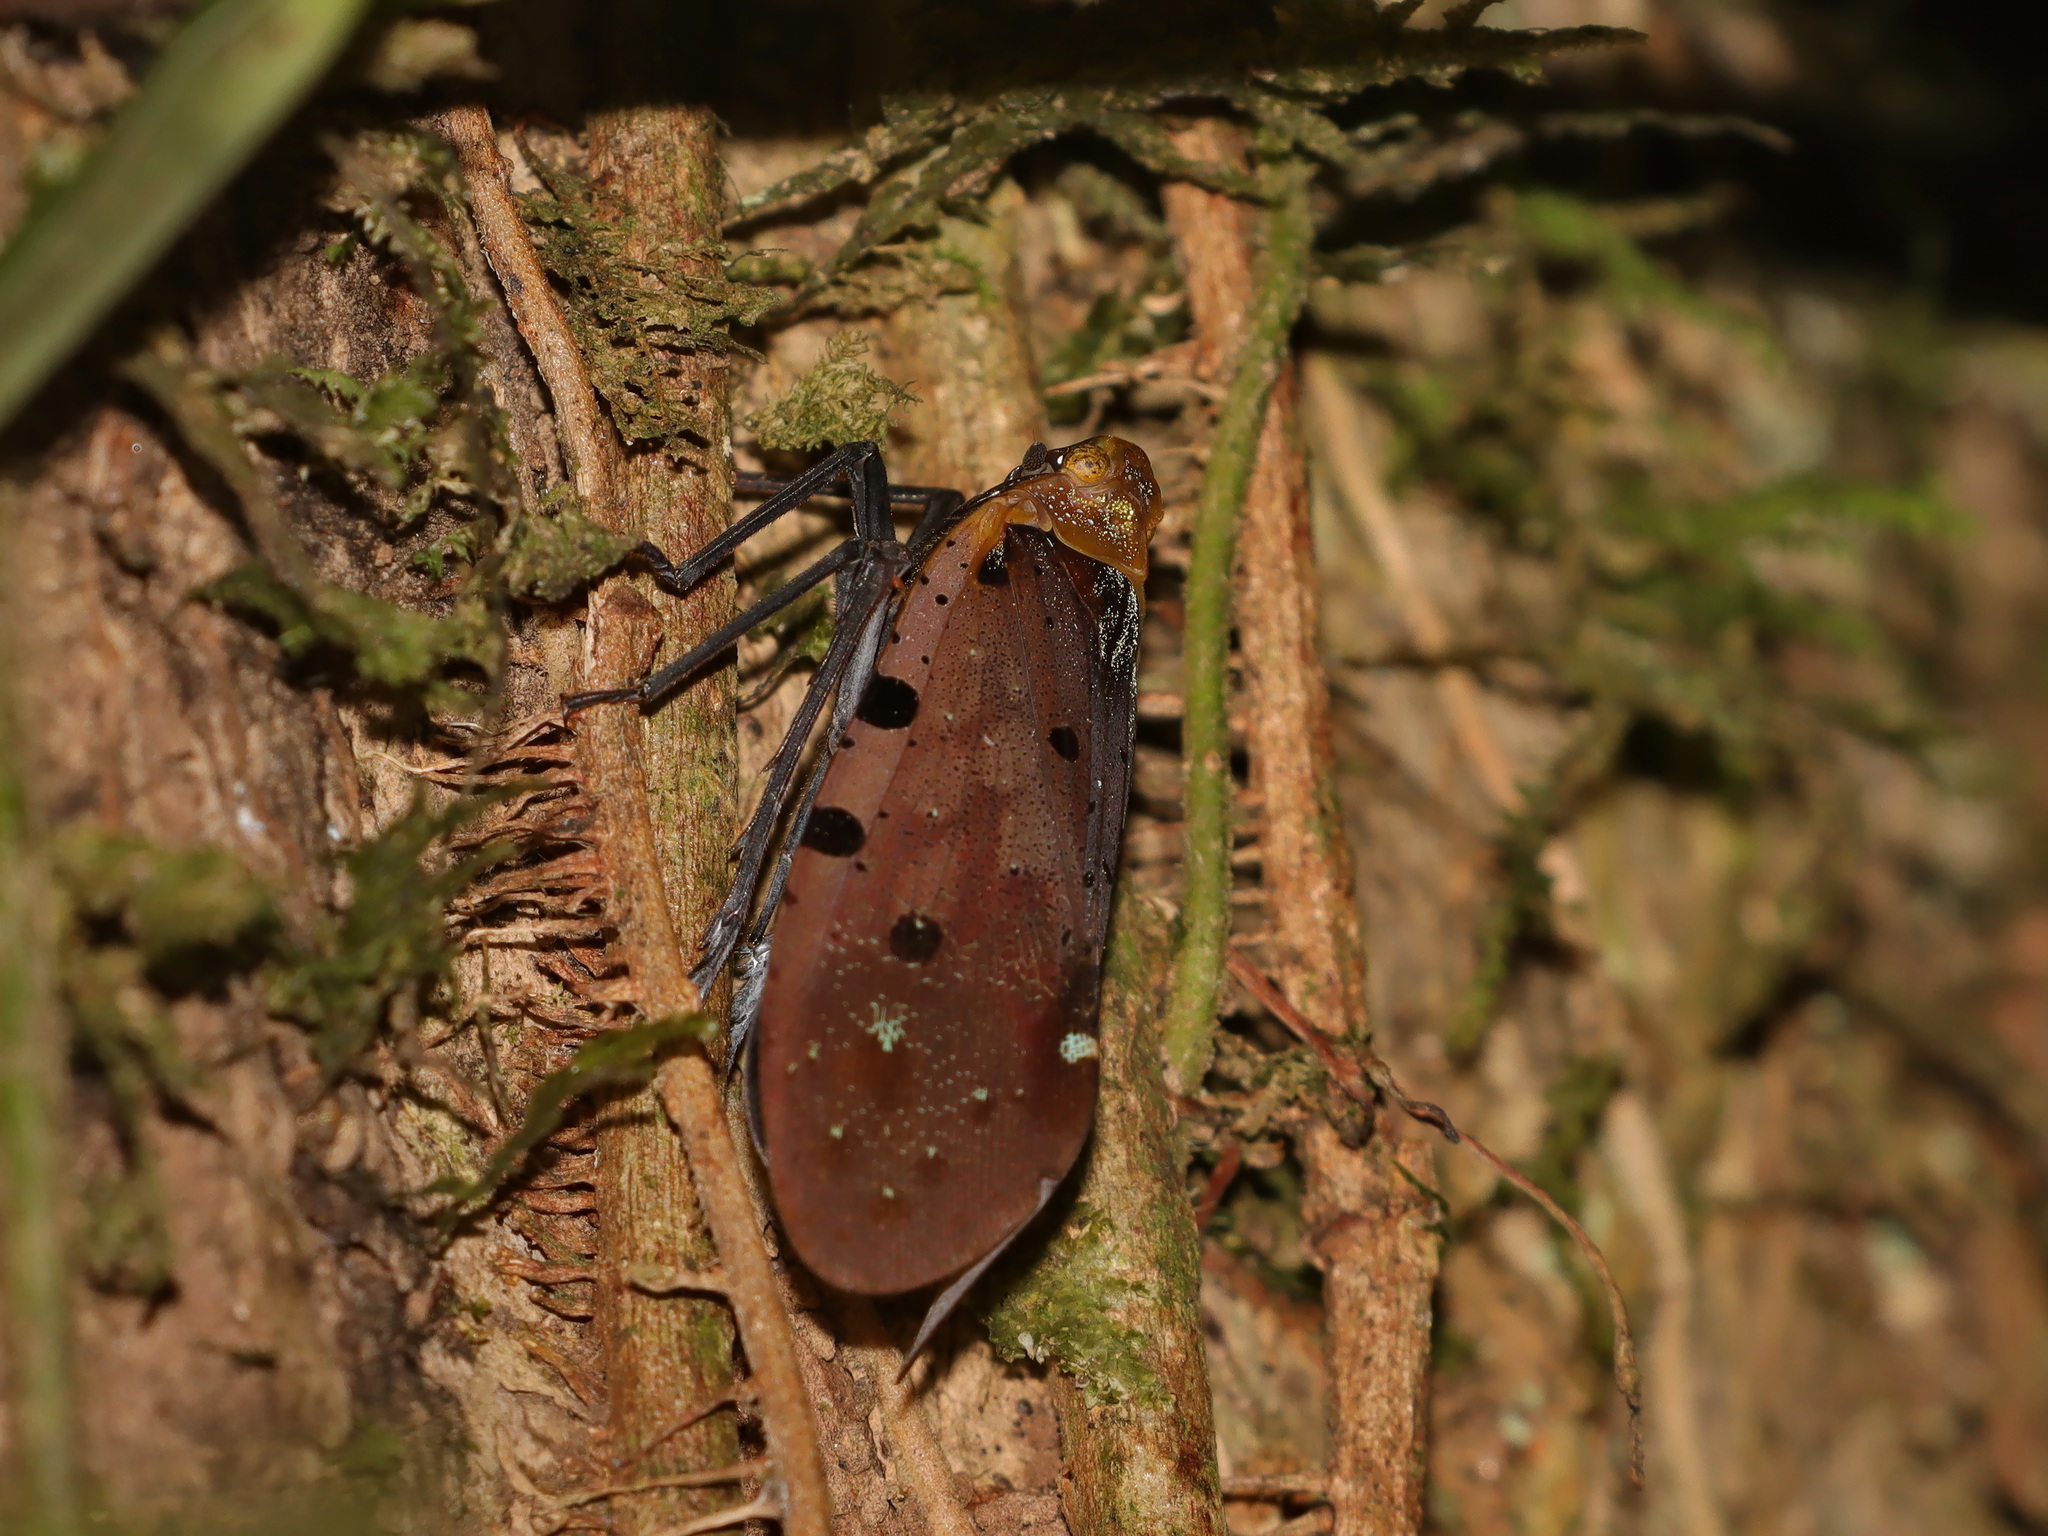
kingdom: Animalia
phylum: Arthropoda
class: Insecta
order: Hemiptera
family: Fulgoridae
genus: Penthicodes
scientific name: Penthicodes atomaria
